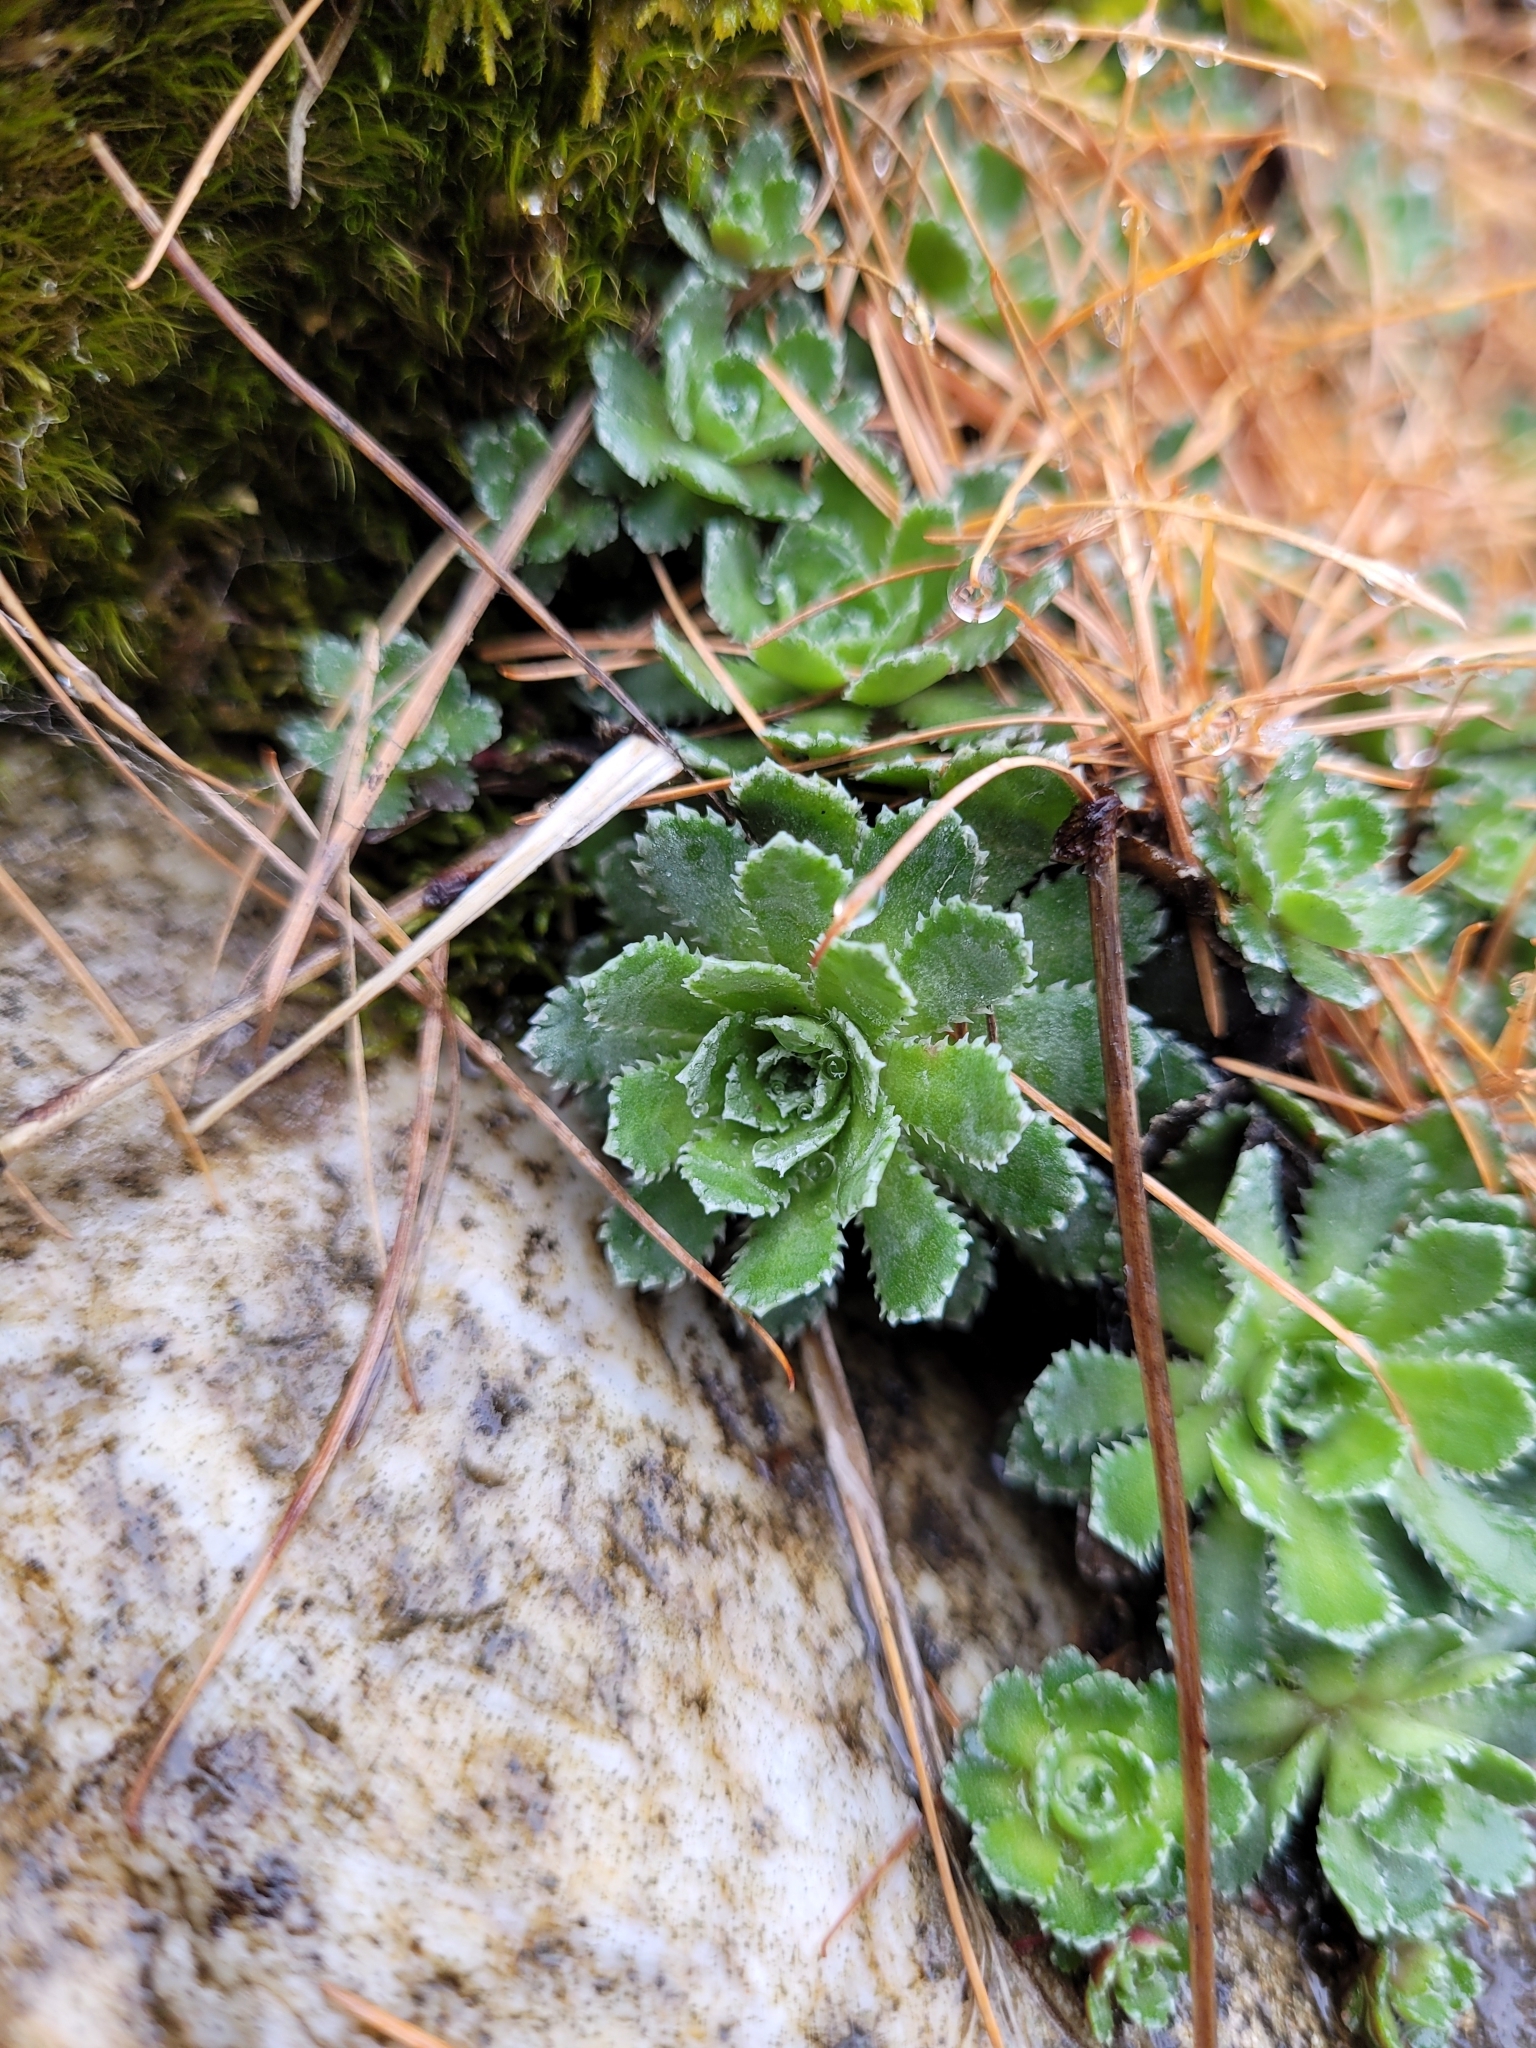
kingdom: Plantae
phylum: Tracheophyta
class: Magnoliopsida
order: Saxifragales
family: Saxifragaceae
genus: Saxifraga
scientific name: Saxifraga paniculata
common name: Livelong saxifrage
